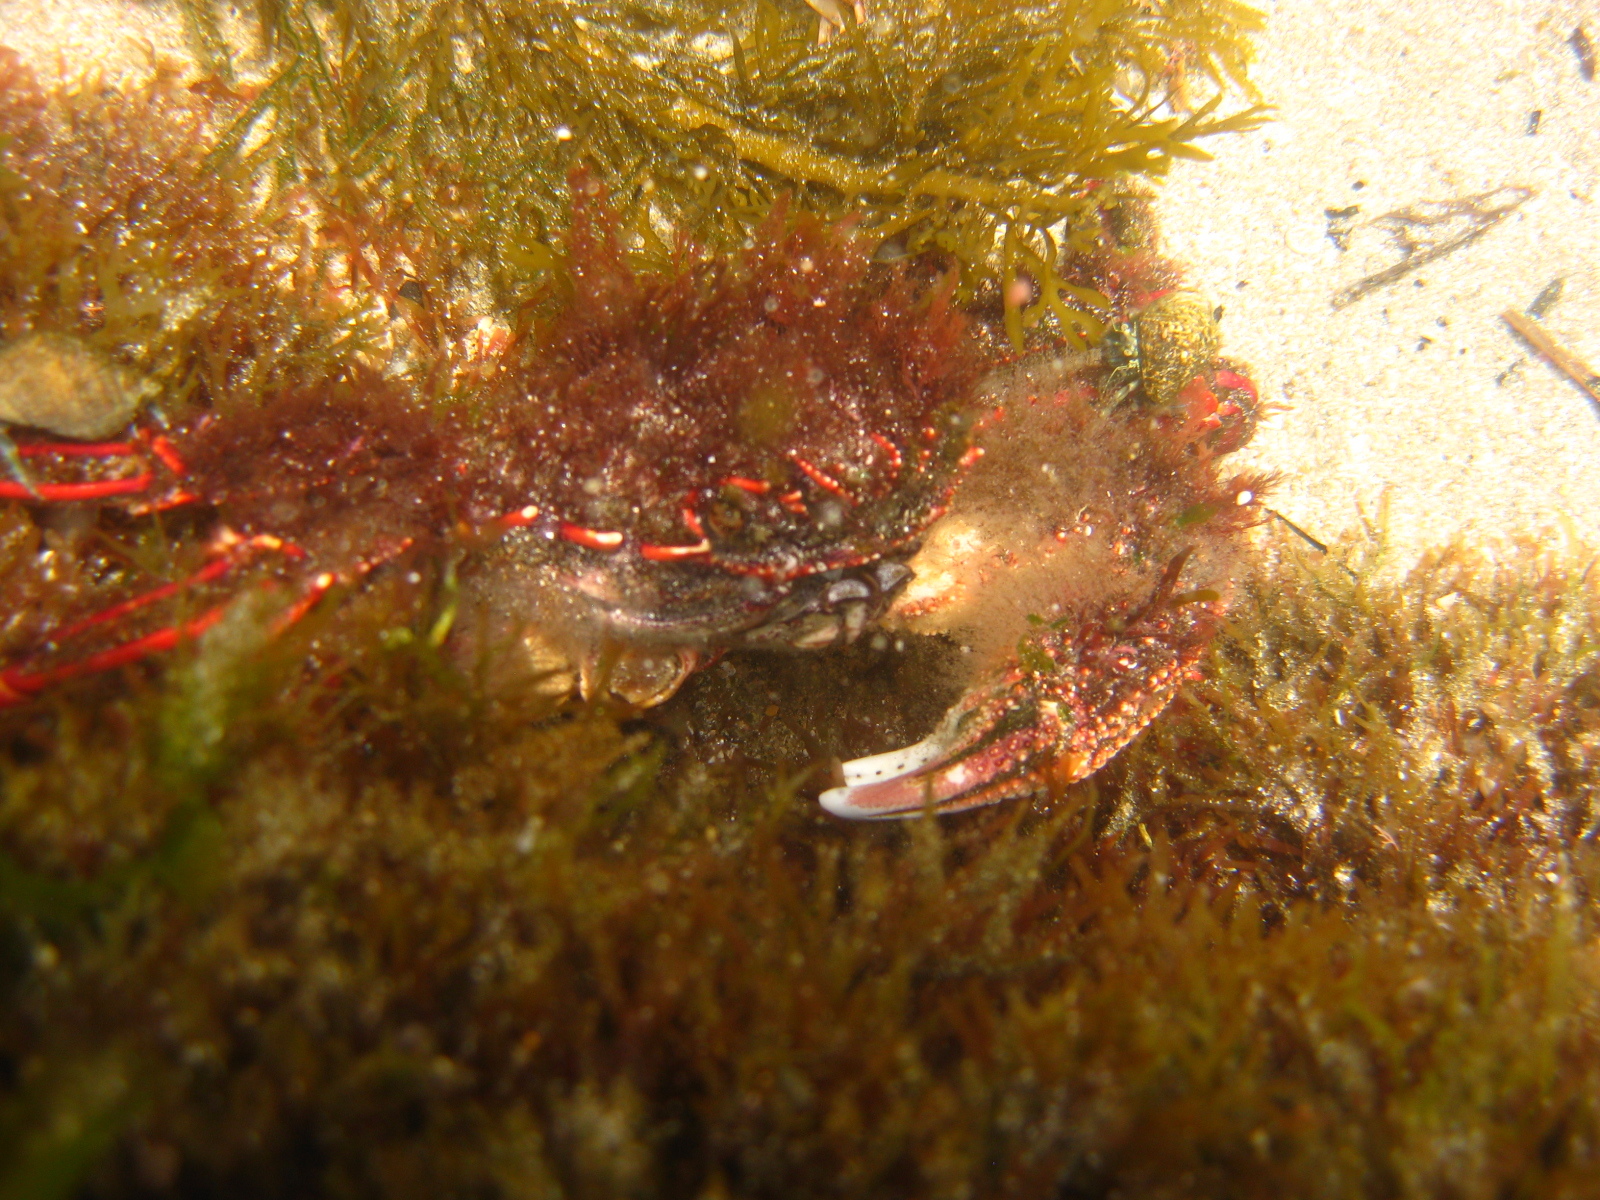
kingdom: Animalia
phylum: Arthropoda
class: Malacostraca
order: Decapoda
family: Plagusiidae
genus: Guinusia
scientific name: Guinusia chabrus
